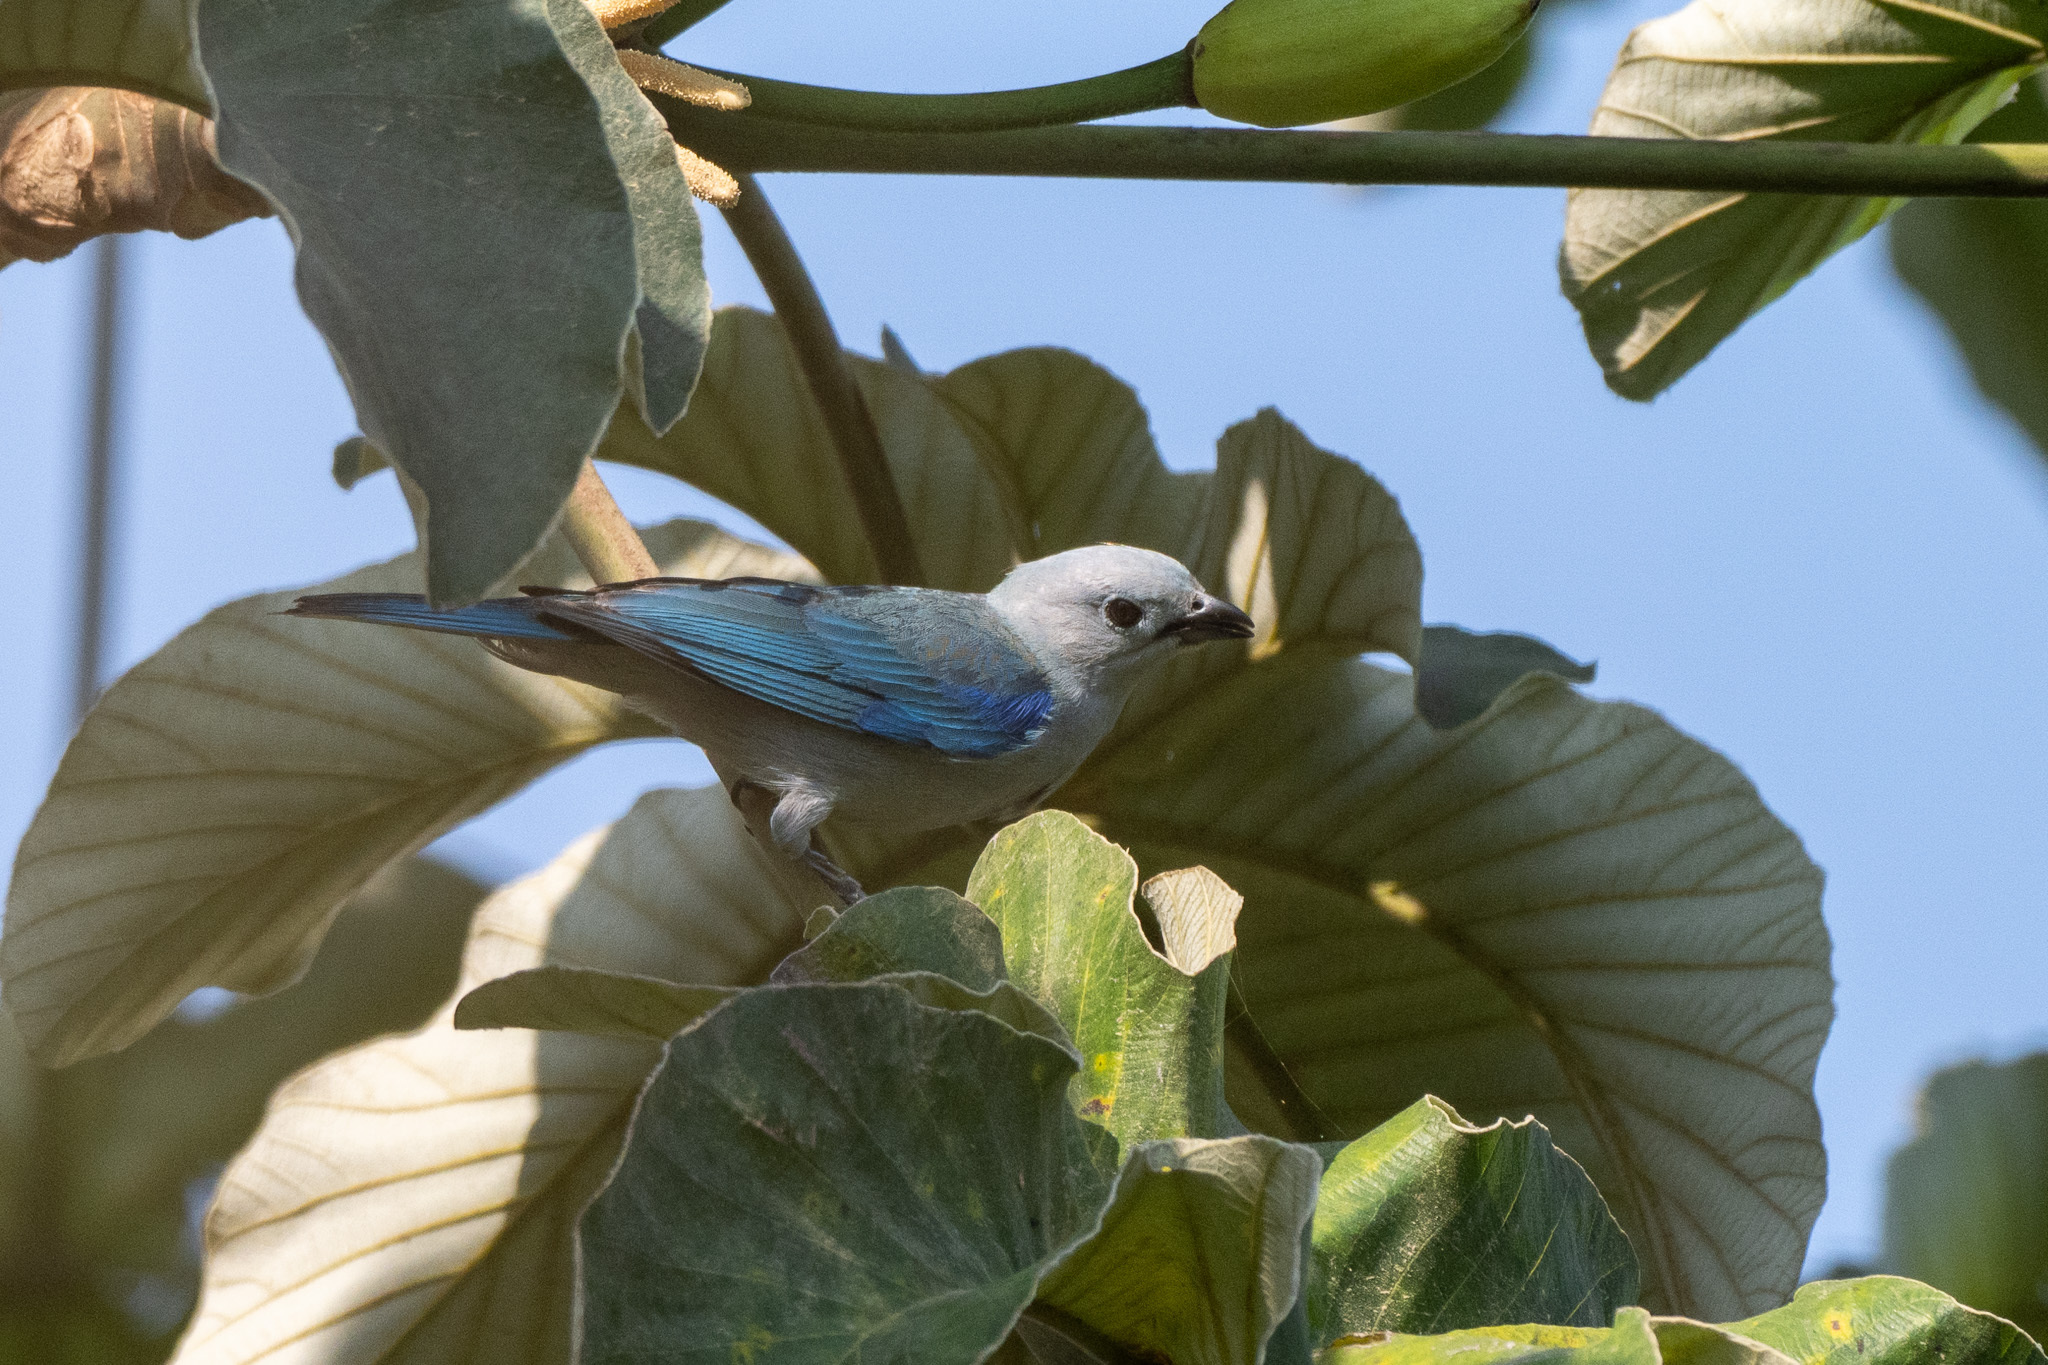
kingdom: Animalia
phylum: Chordata
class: Aves
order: Passeriformes
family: Thraupidae
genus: Thraupis
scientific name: Thraupis episcopus
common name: Blue-grey tanager
